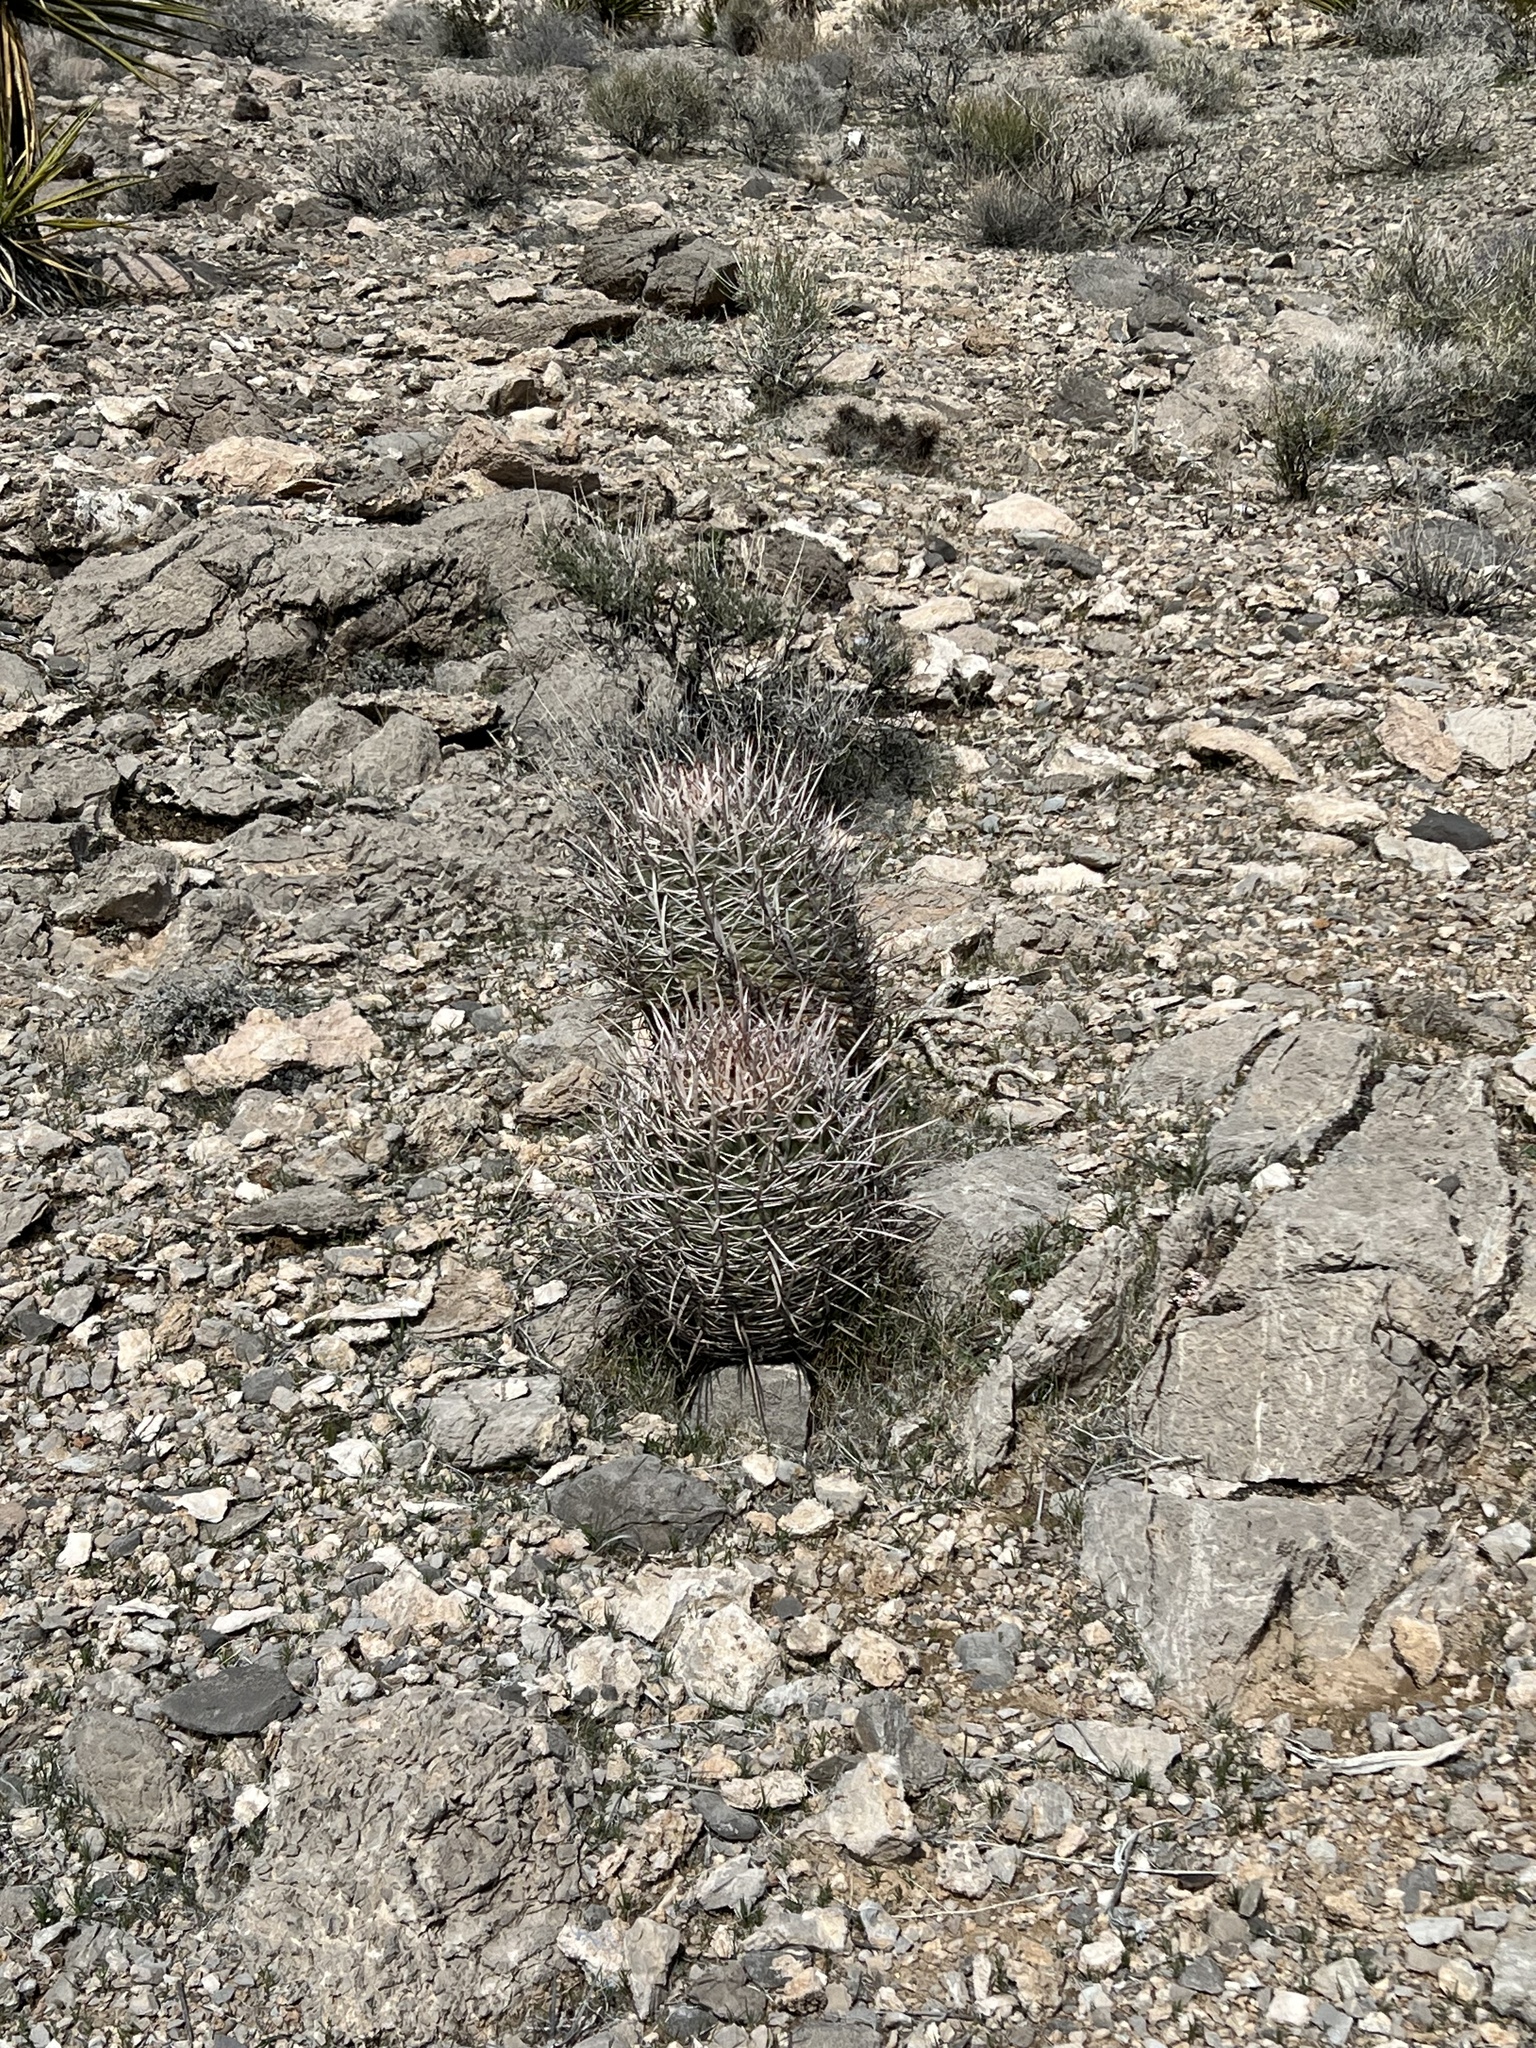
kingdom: Plantae
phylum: Tracheophyta
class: Magnoliopsida
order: Caryophyllales
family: Cactaceae
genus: Echinocactus
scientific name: Echinocactus polycephalus
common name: Cottontop cactus
